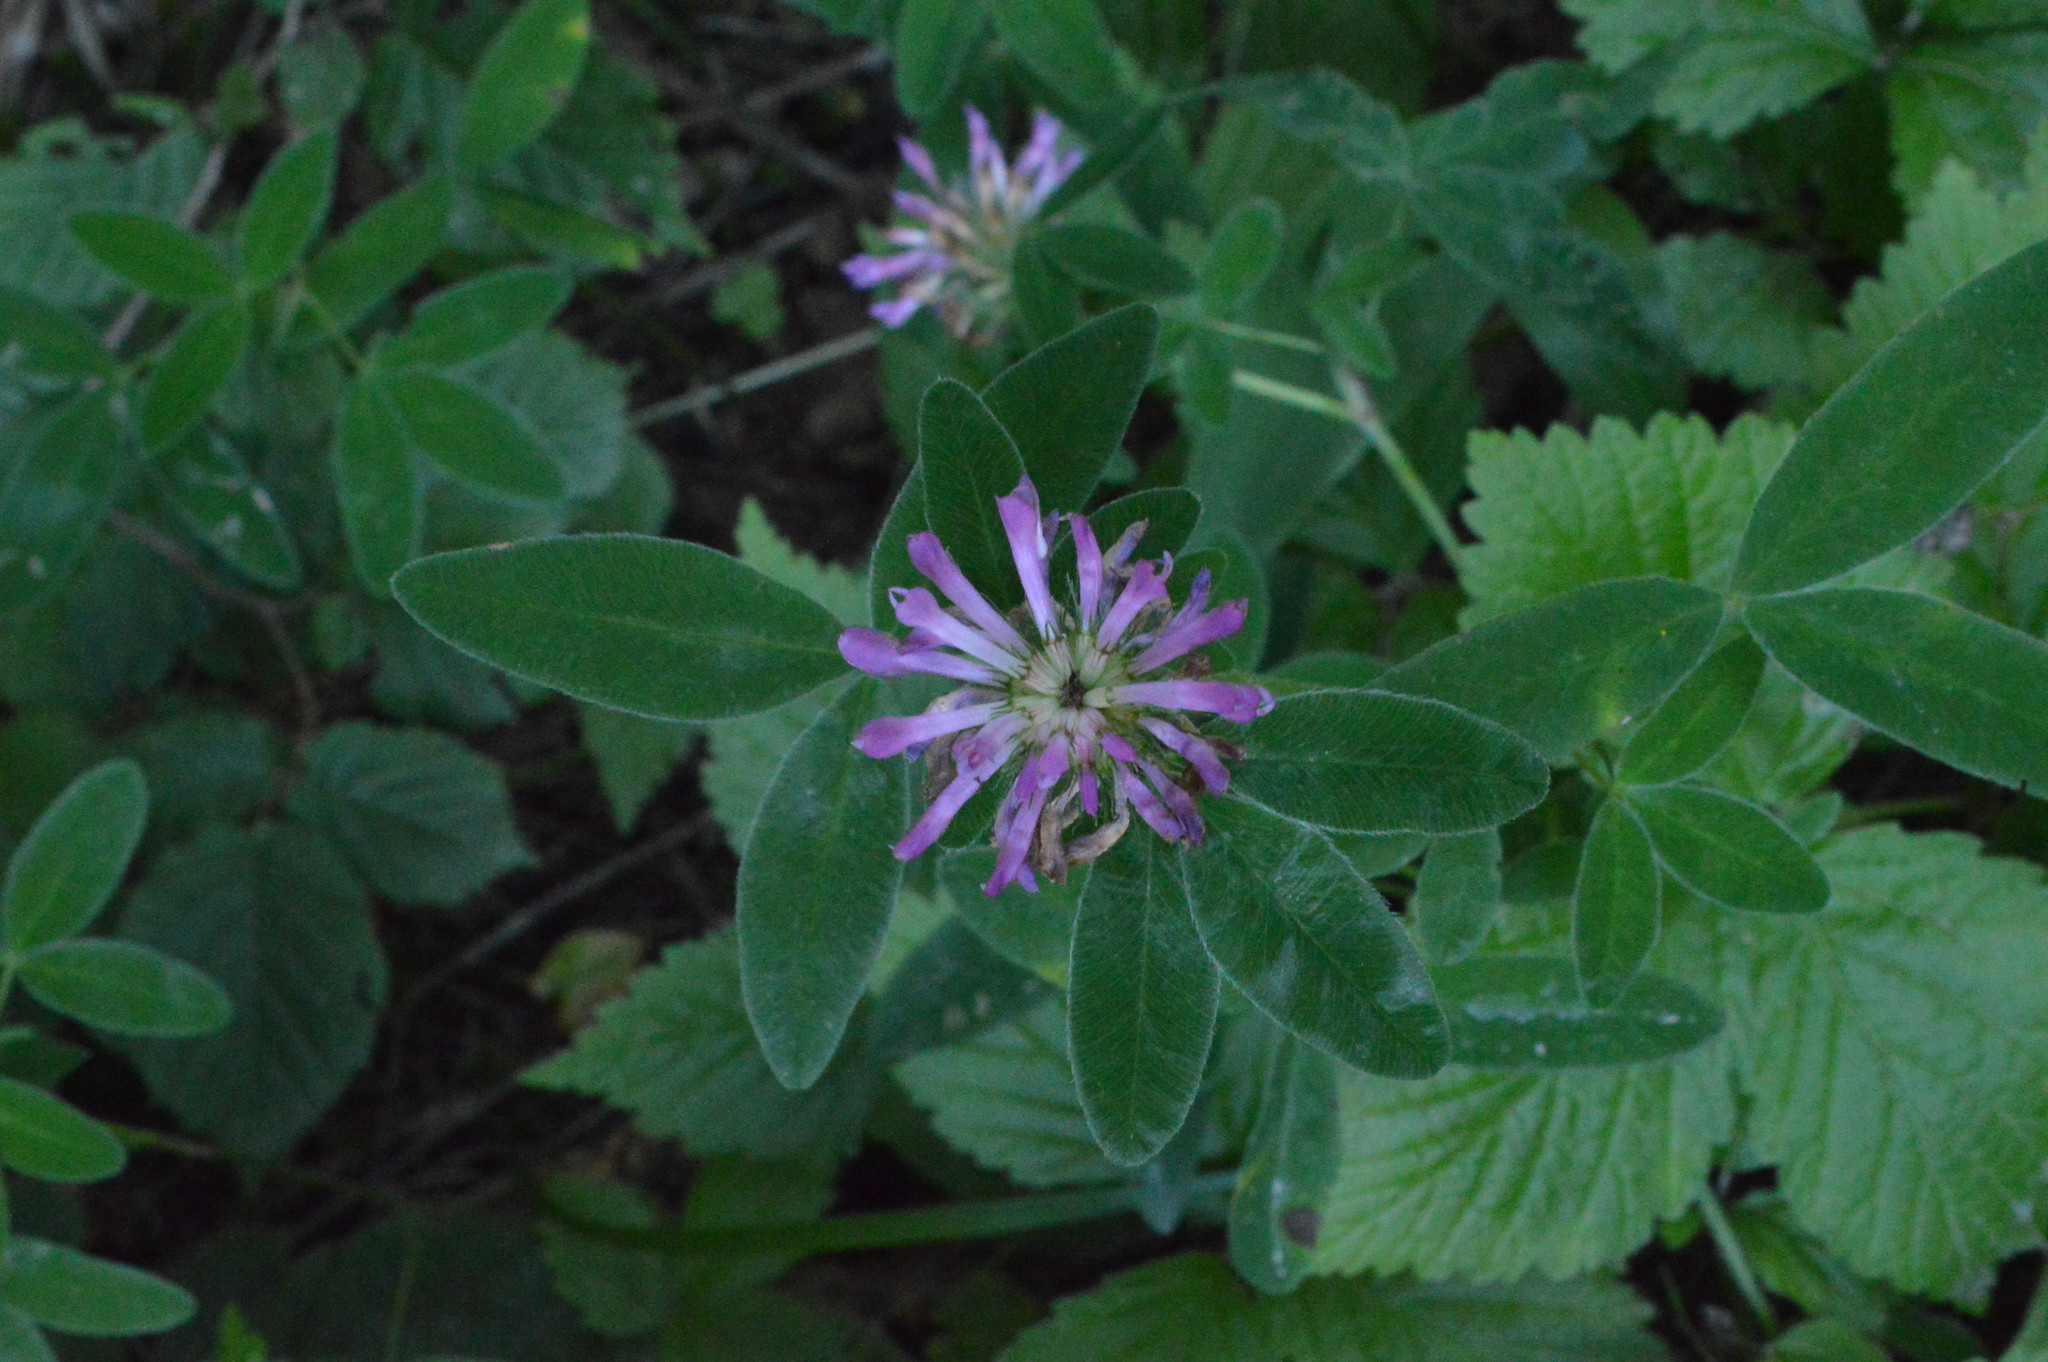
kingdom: Plantae
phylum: Tracheophyta
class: Magnoliopsida
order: Fabales
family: Fabaceae
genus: Trifolium
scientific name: Trifolium medium
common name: Zigzag clover
